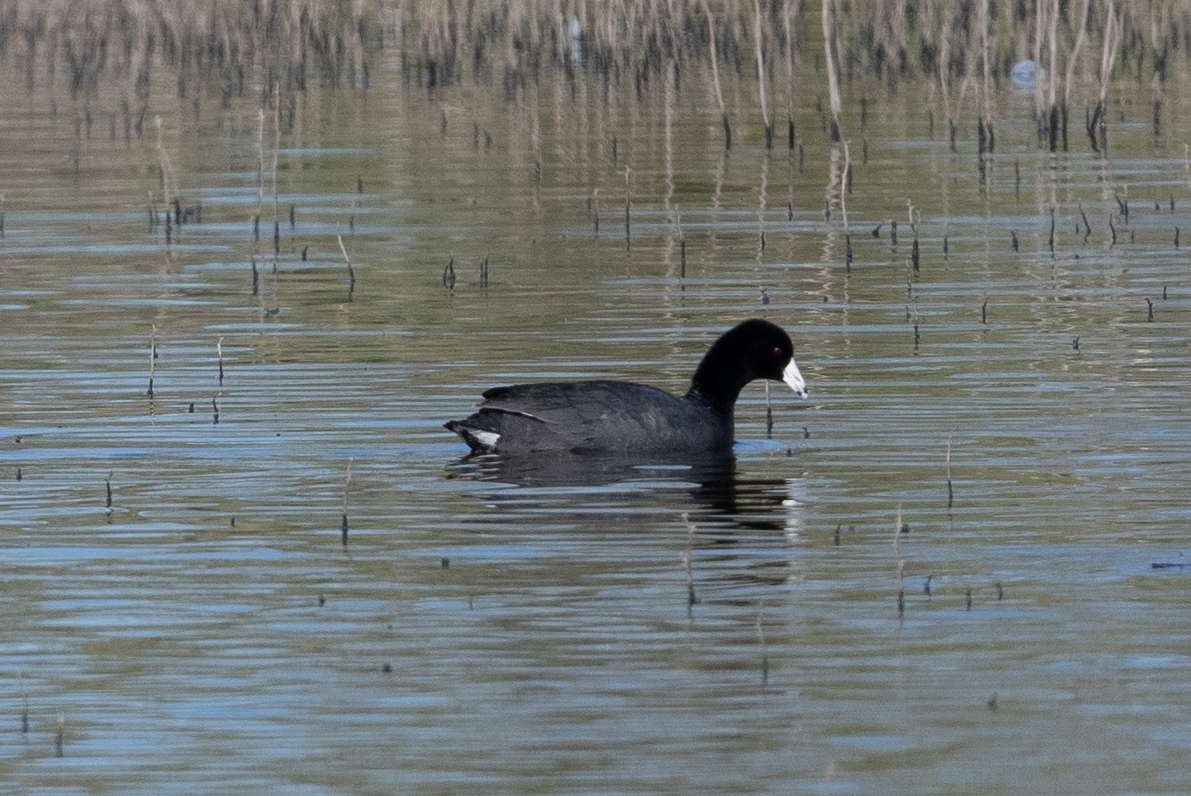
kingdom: Animalia
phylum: Chordata
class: Aves
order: Gruiformes
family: Rallidae
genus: Fulica
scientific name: Fulica americana
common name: American coot
